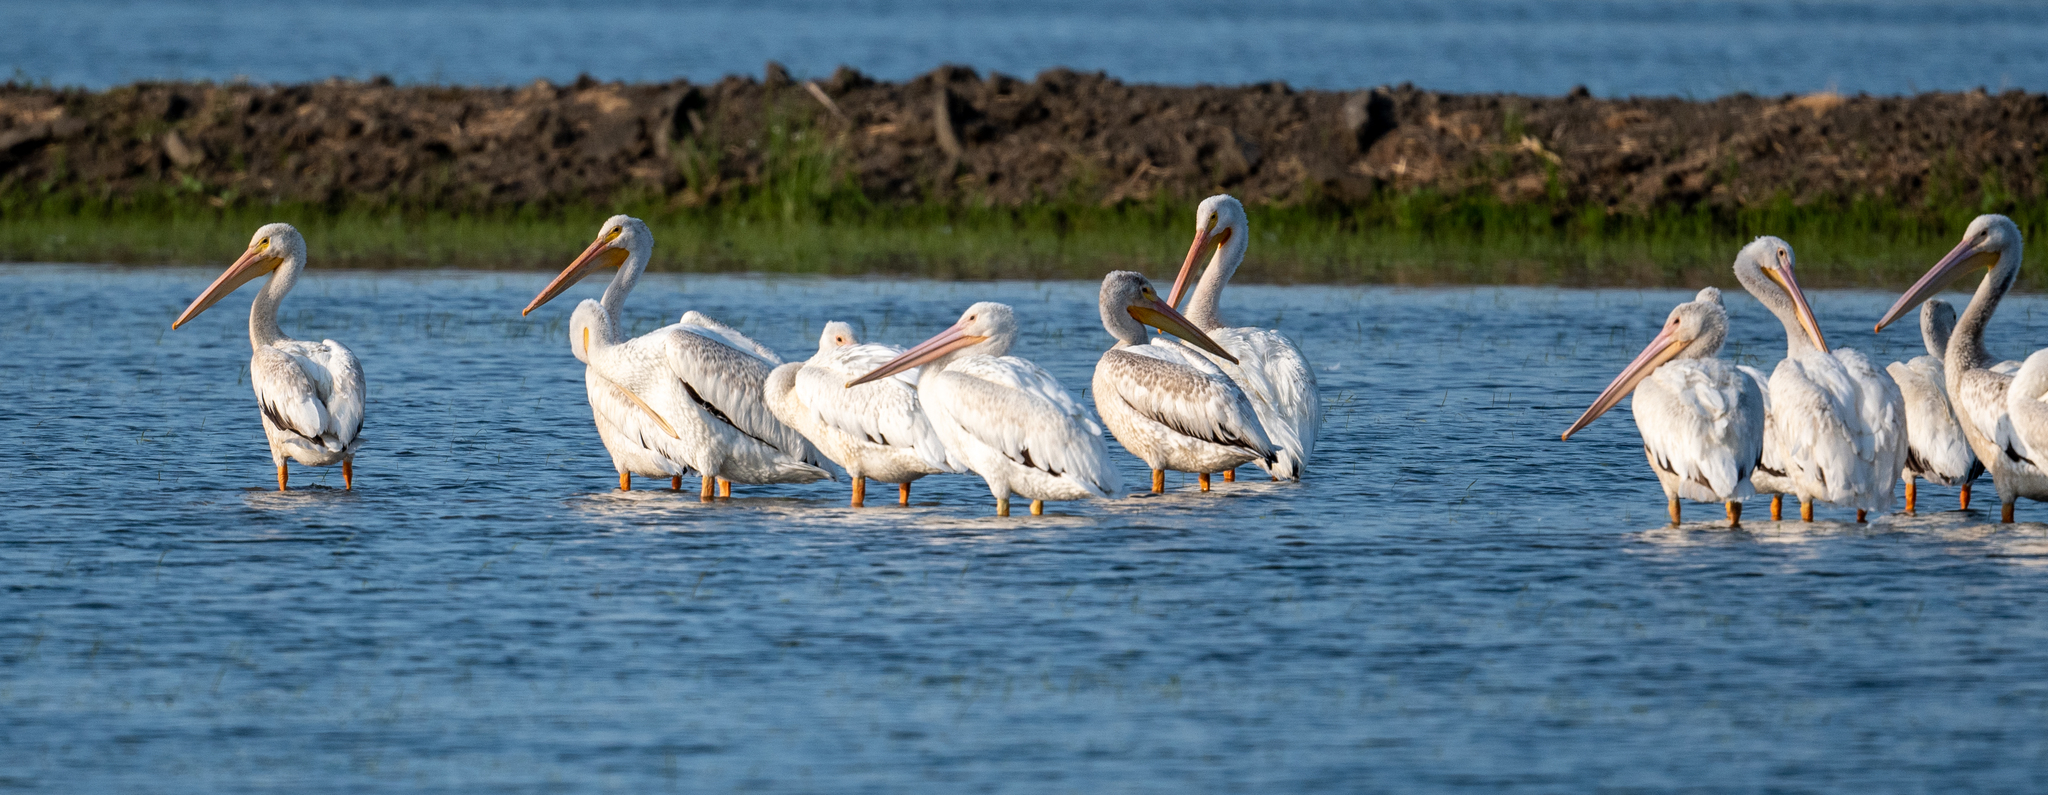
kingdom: Animalia
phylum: Chordata
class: Aves
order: Pelecaniformes
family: Pelecanidae
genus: Pelecanus
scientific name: Pelecanus erythrorhynchos
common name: American white pelican
